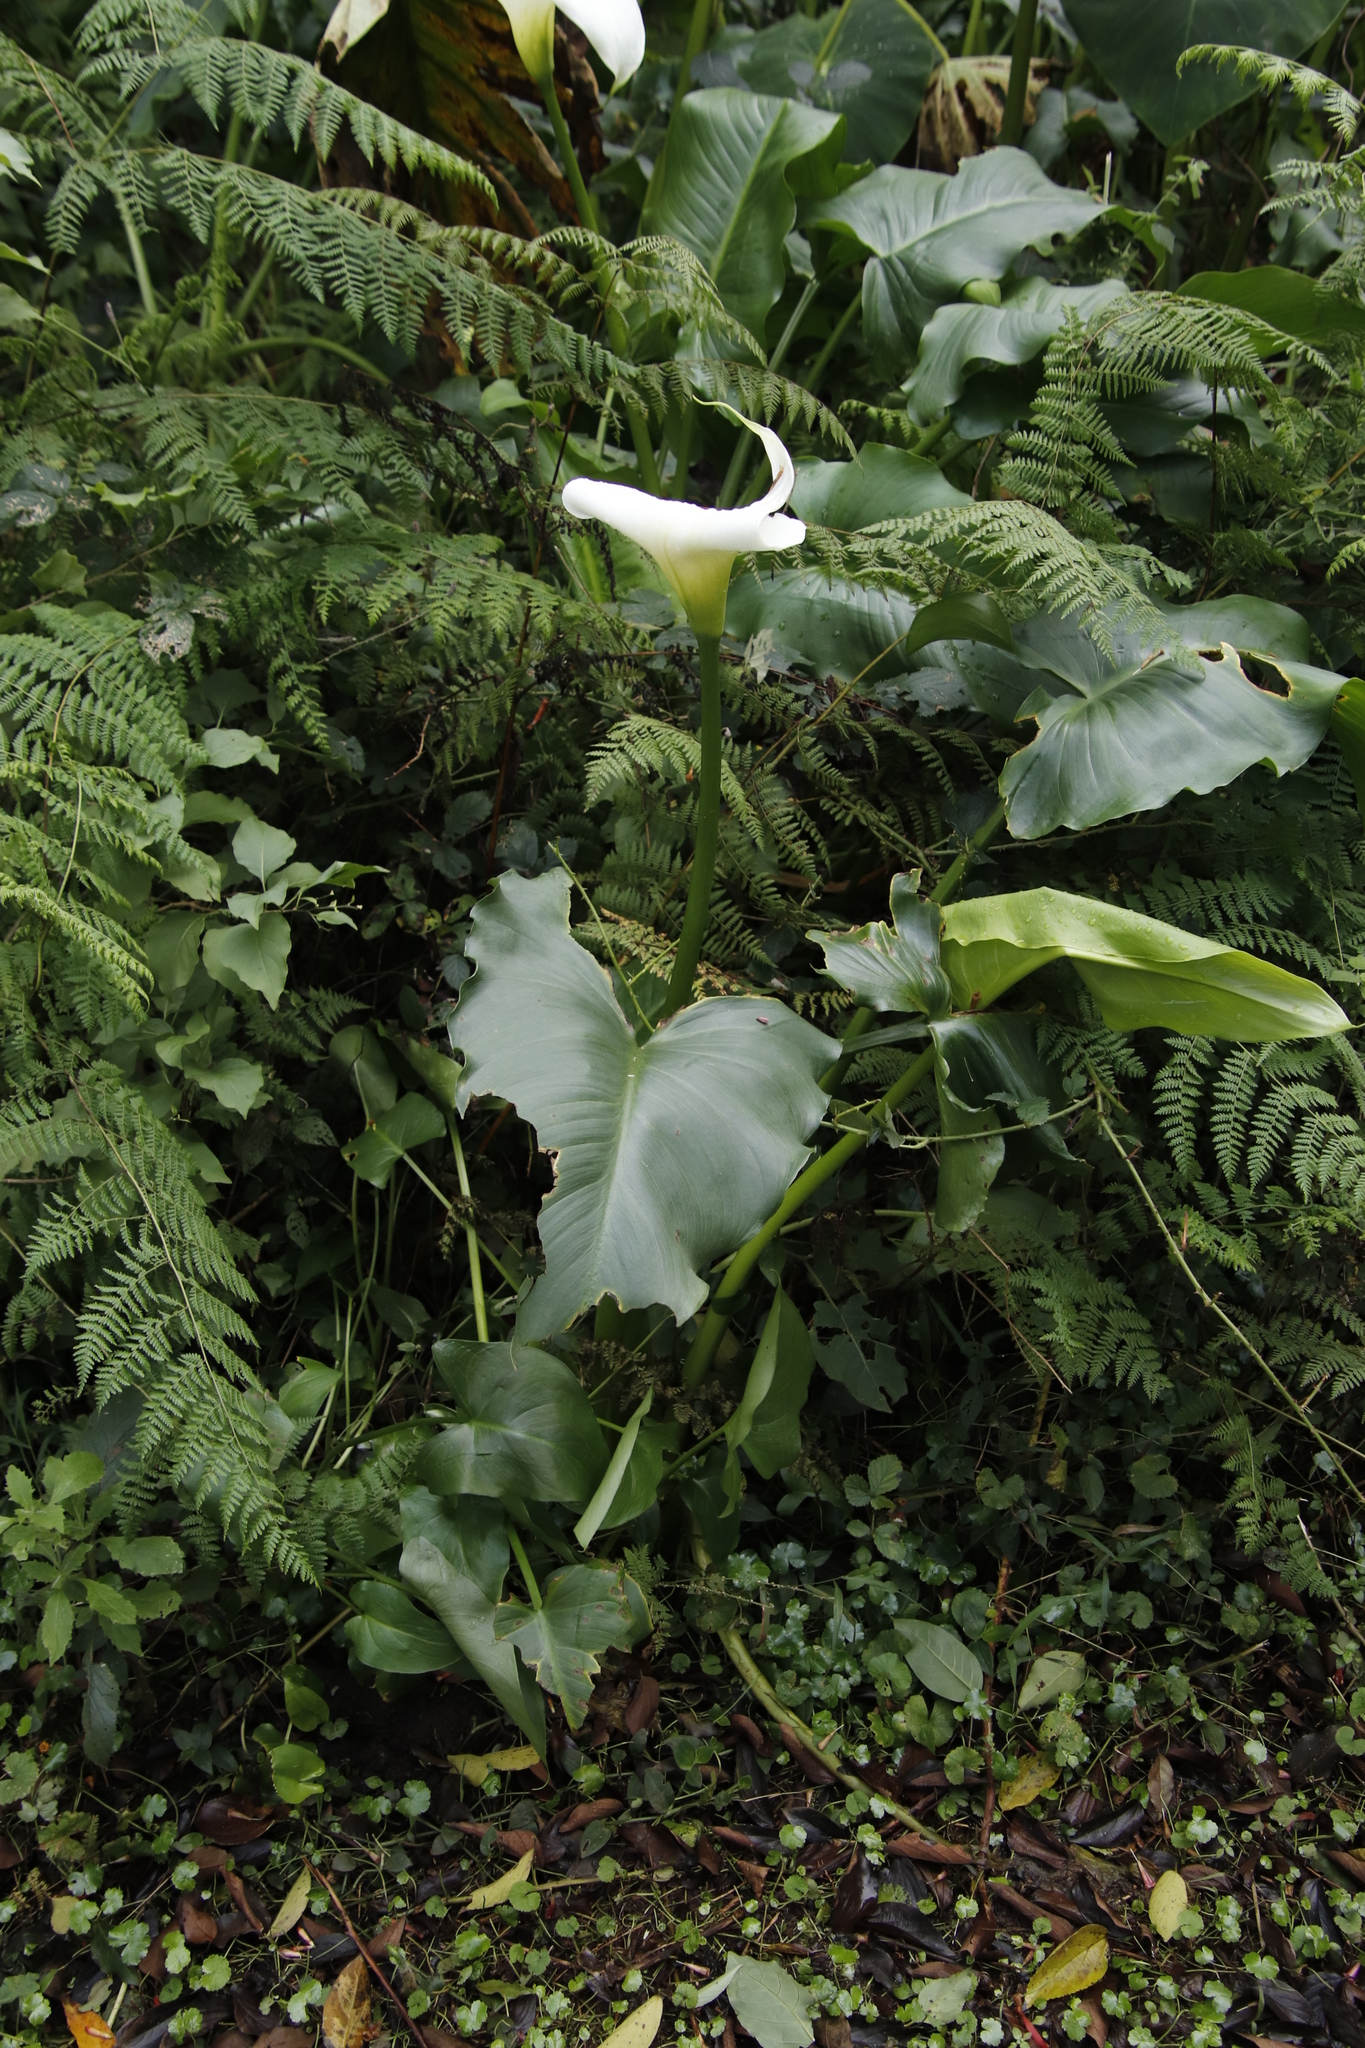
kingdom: Plantae
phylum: Tracheophyta
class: Liliopsida
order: Alismatales
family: Araceae
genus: Zantedeschia
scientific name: Zantedeschia aethiopica
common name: Altar-lily
